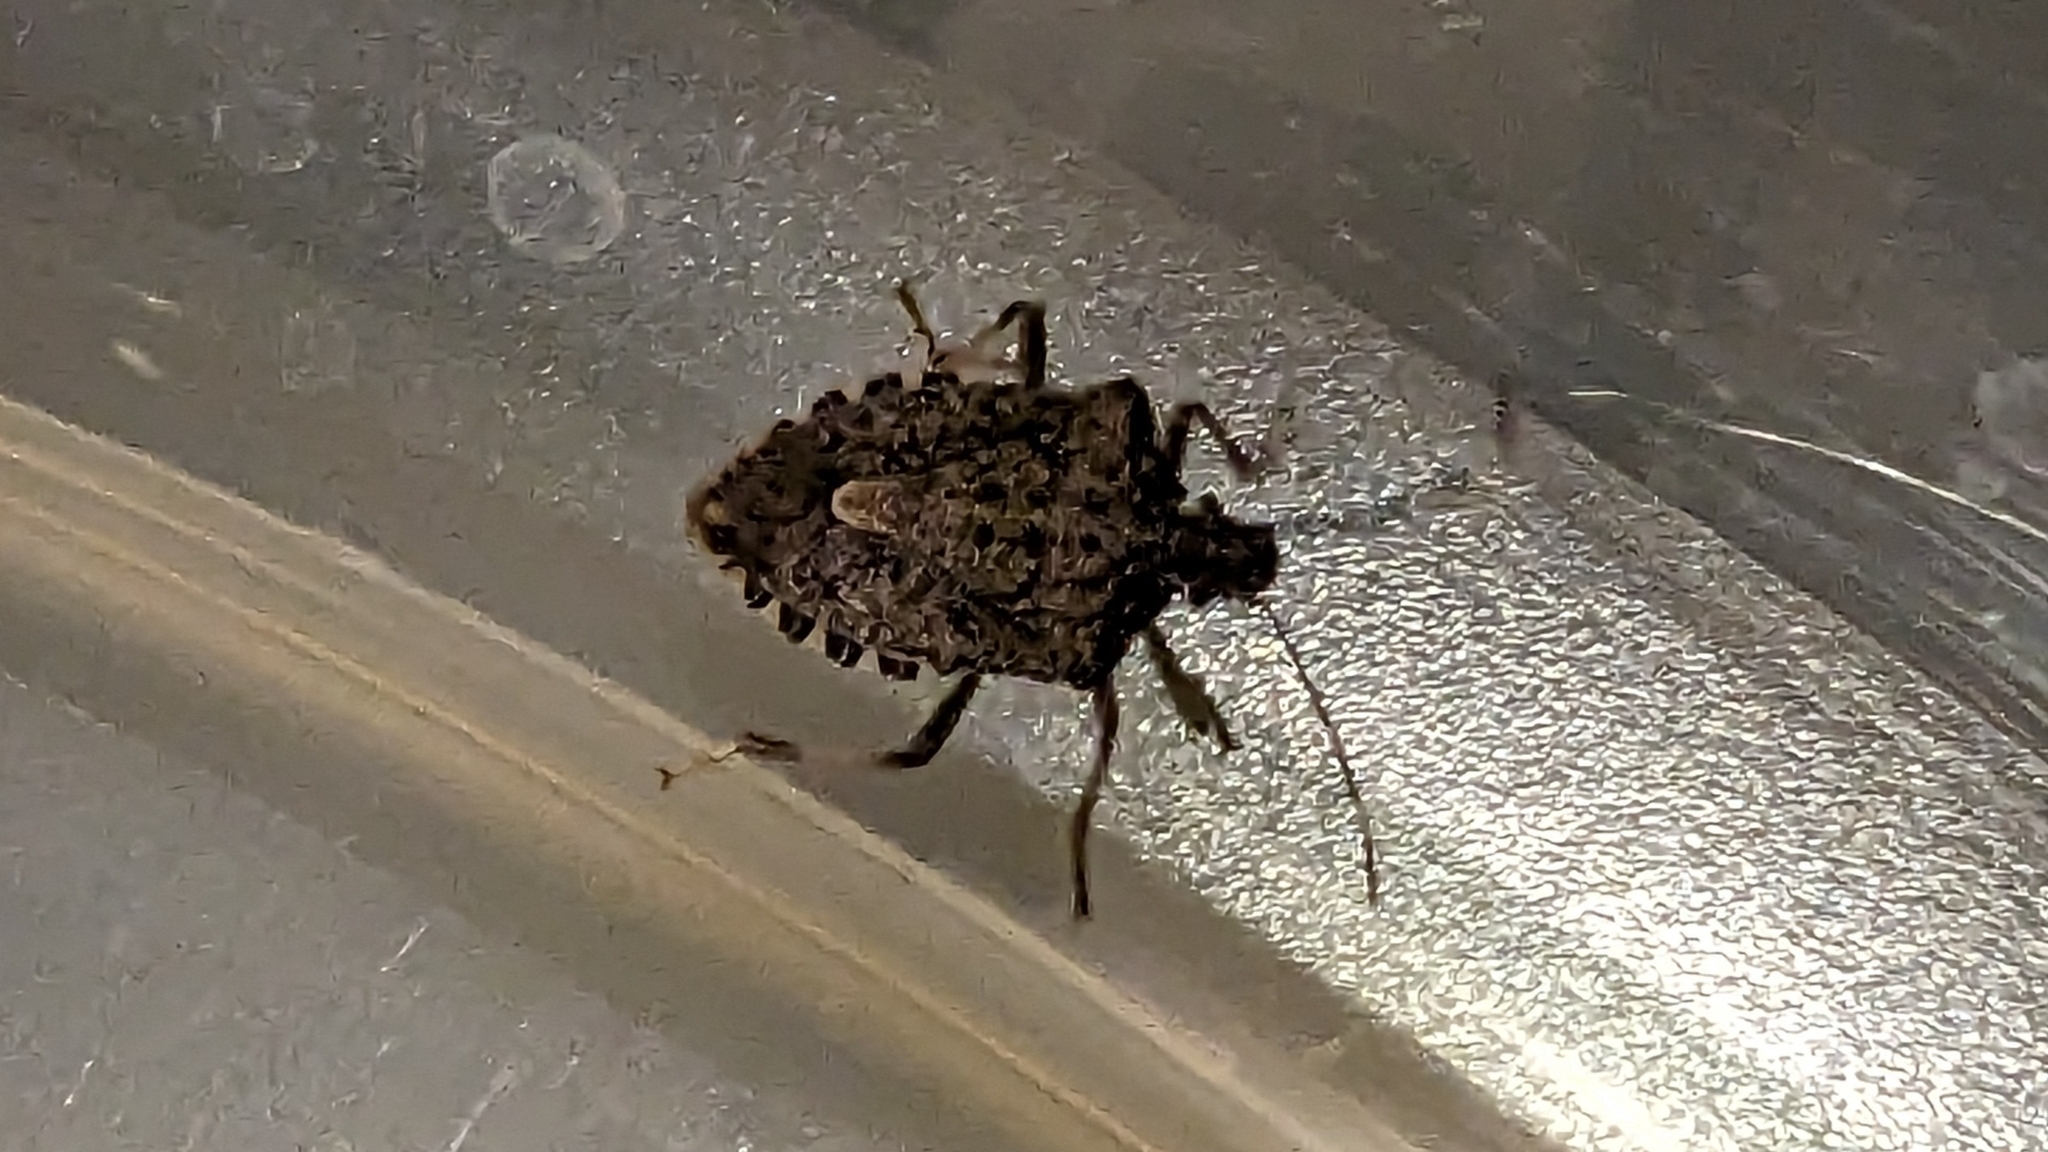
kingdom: Animalia
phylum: Arthropoda
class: Insecta
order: Hemiptera
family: Pentatomidae
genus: Halyomorpha
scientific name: Halyomorpha halys
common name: Brown marmorated stink bug
